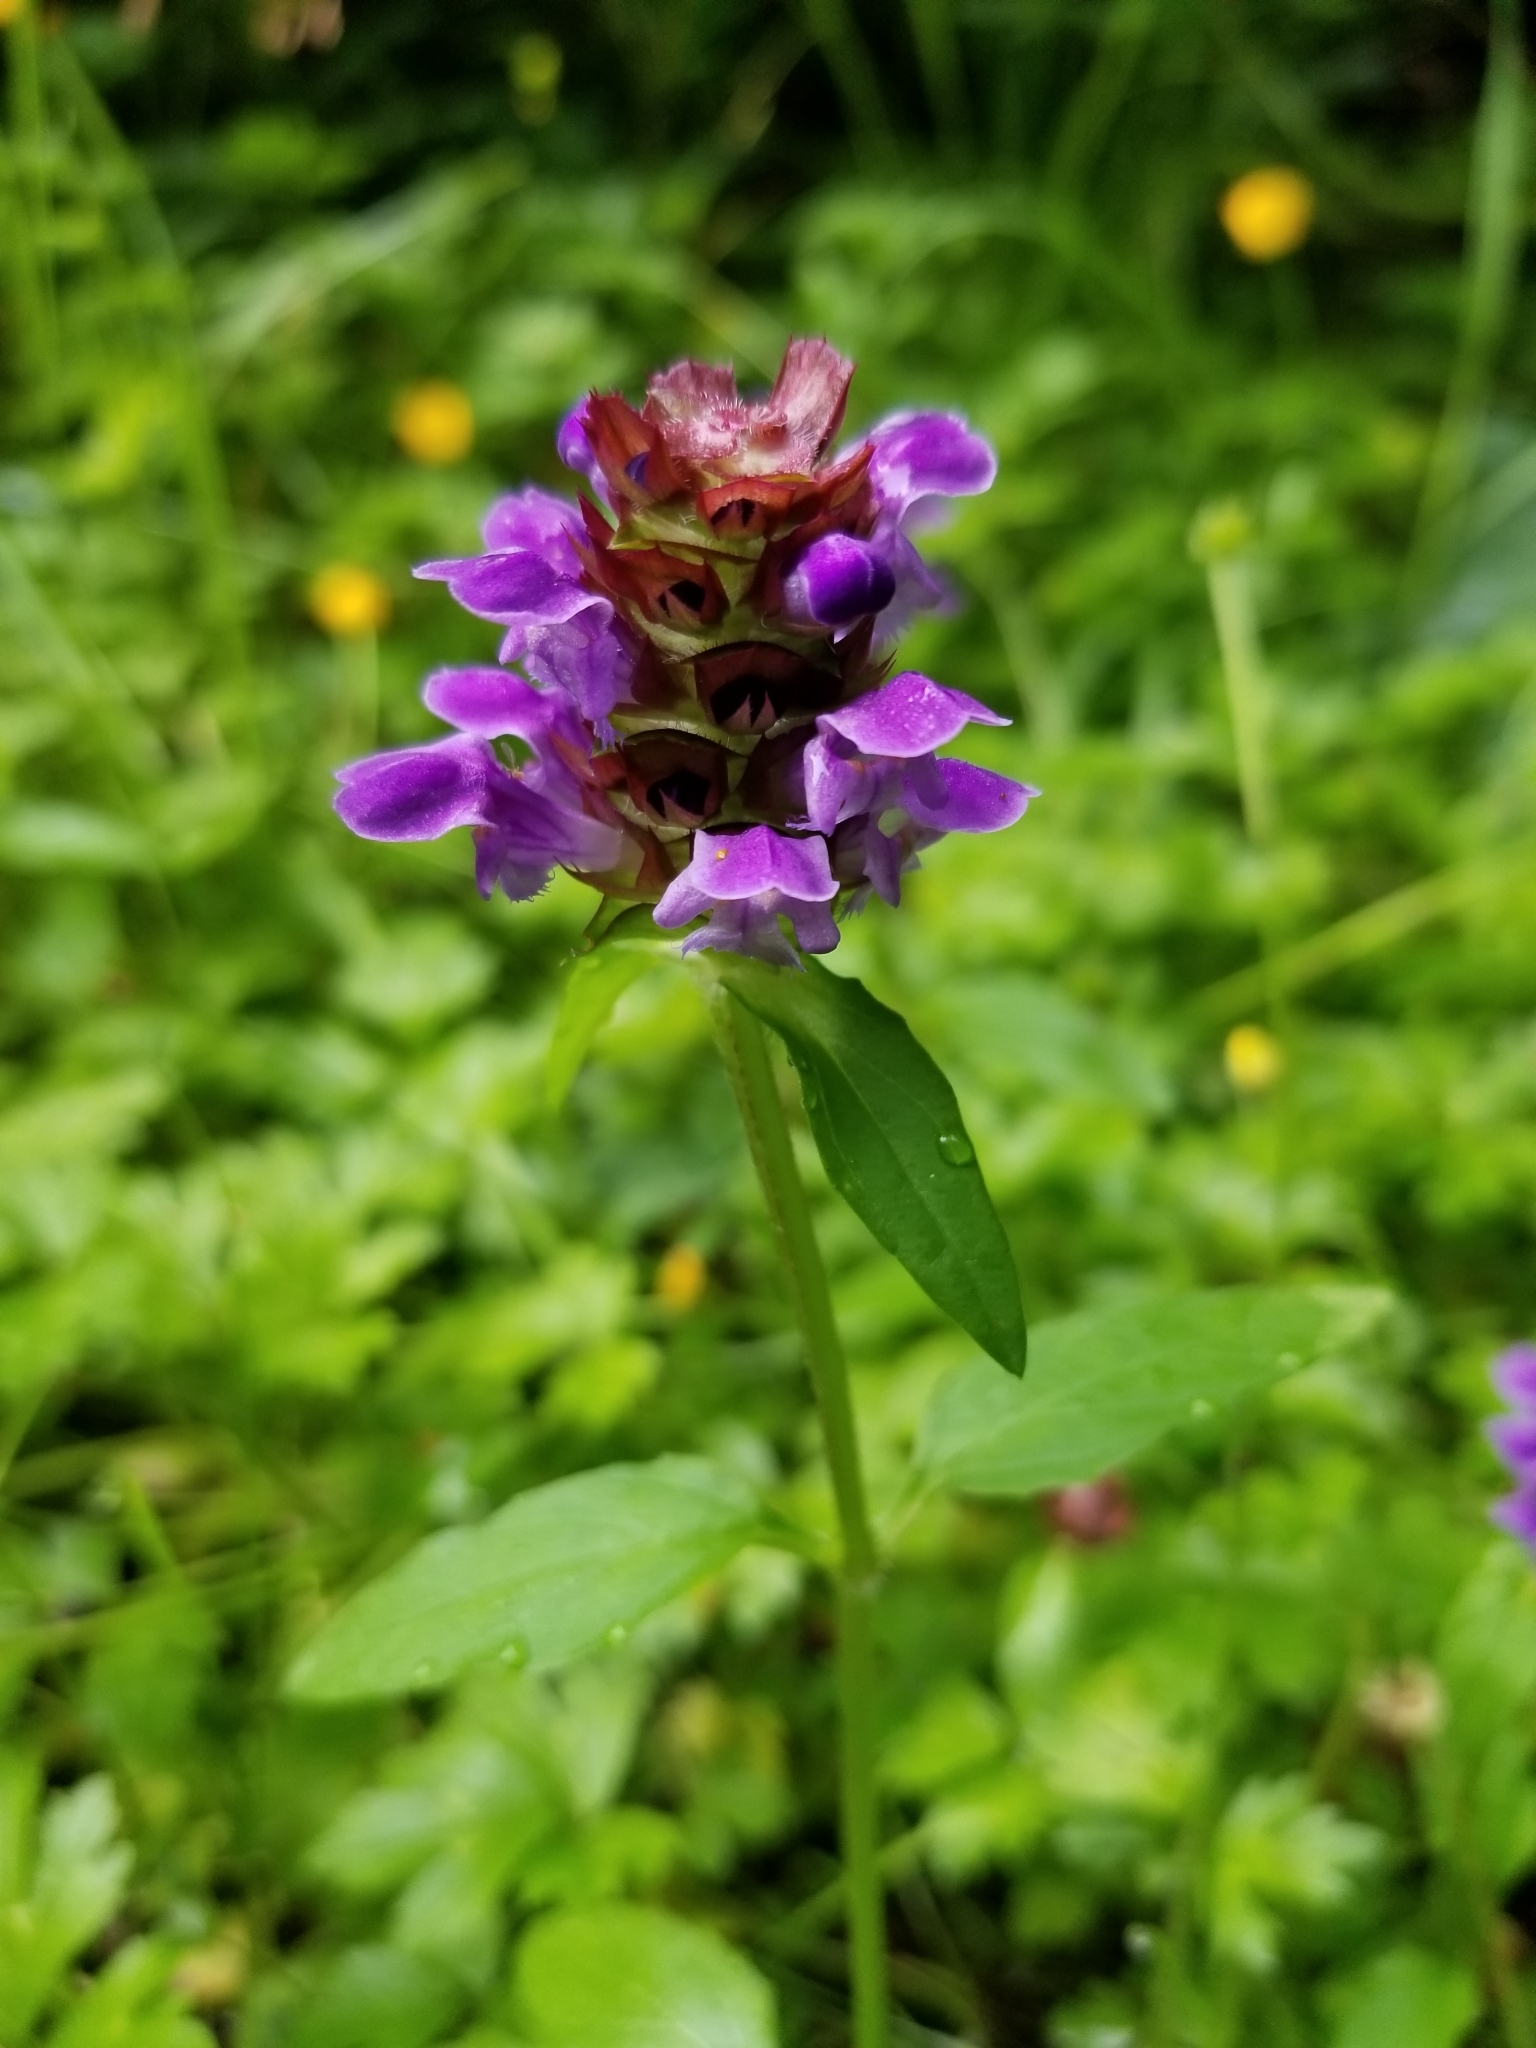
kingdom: Plantae
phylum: Tracheophyta
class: Magnoliopsida
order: Lamiales
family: Lamiaceae
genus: Prunella
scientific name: Prunella vulgaris
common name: Heal-all
